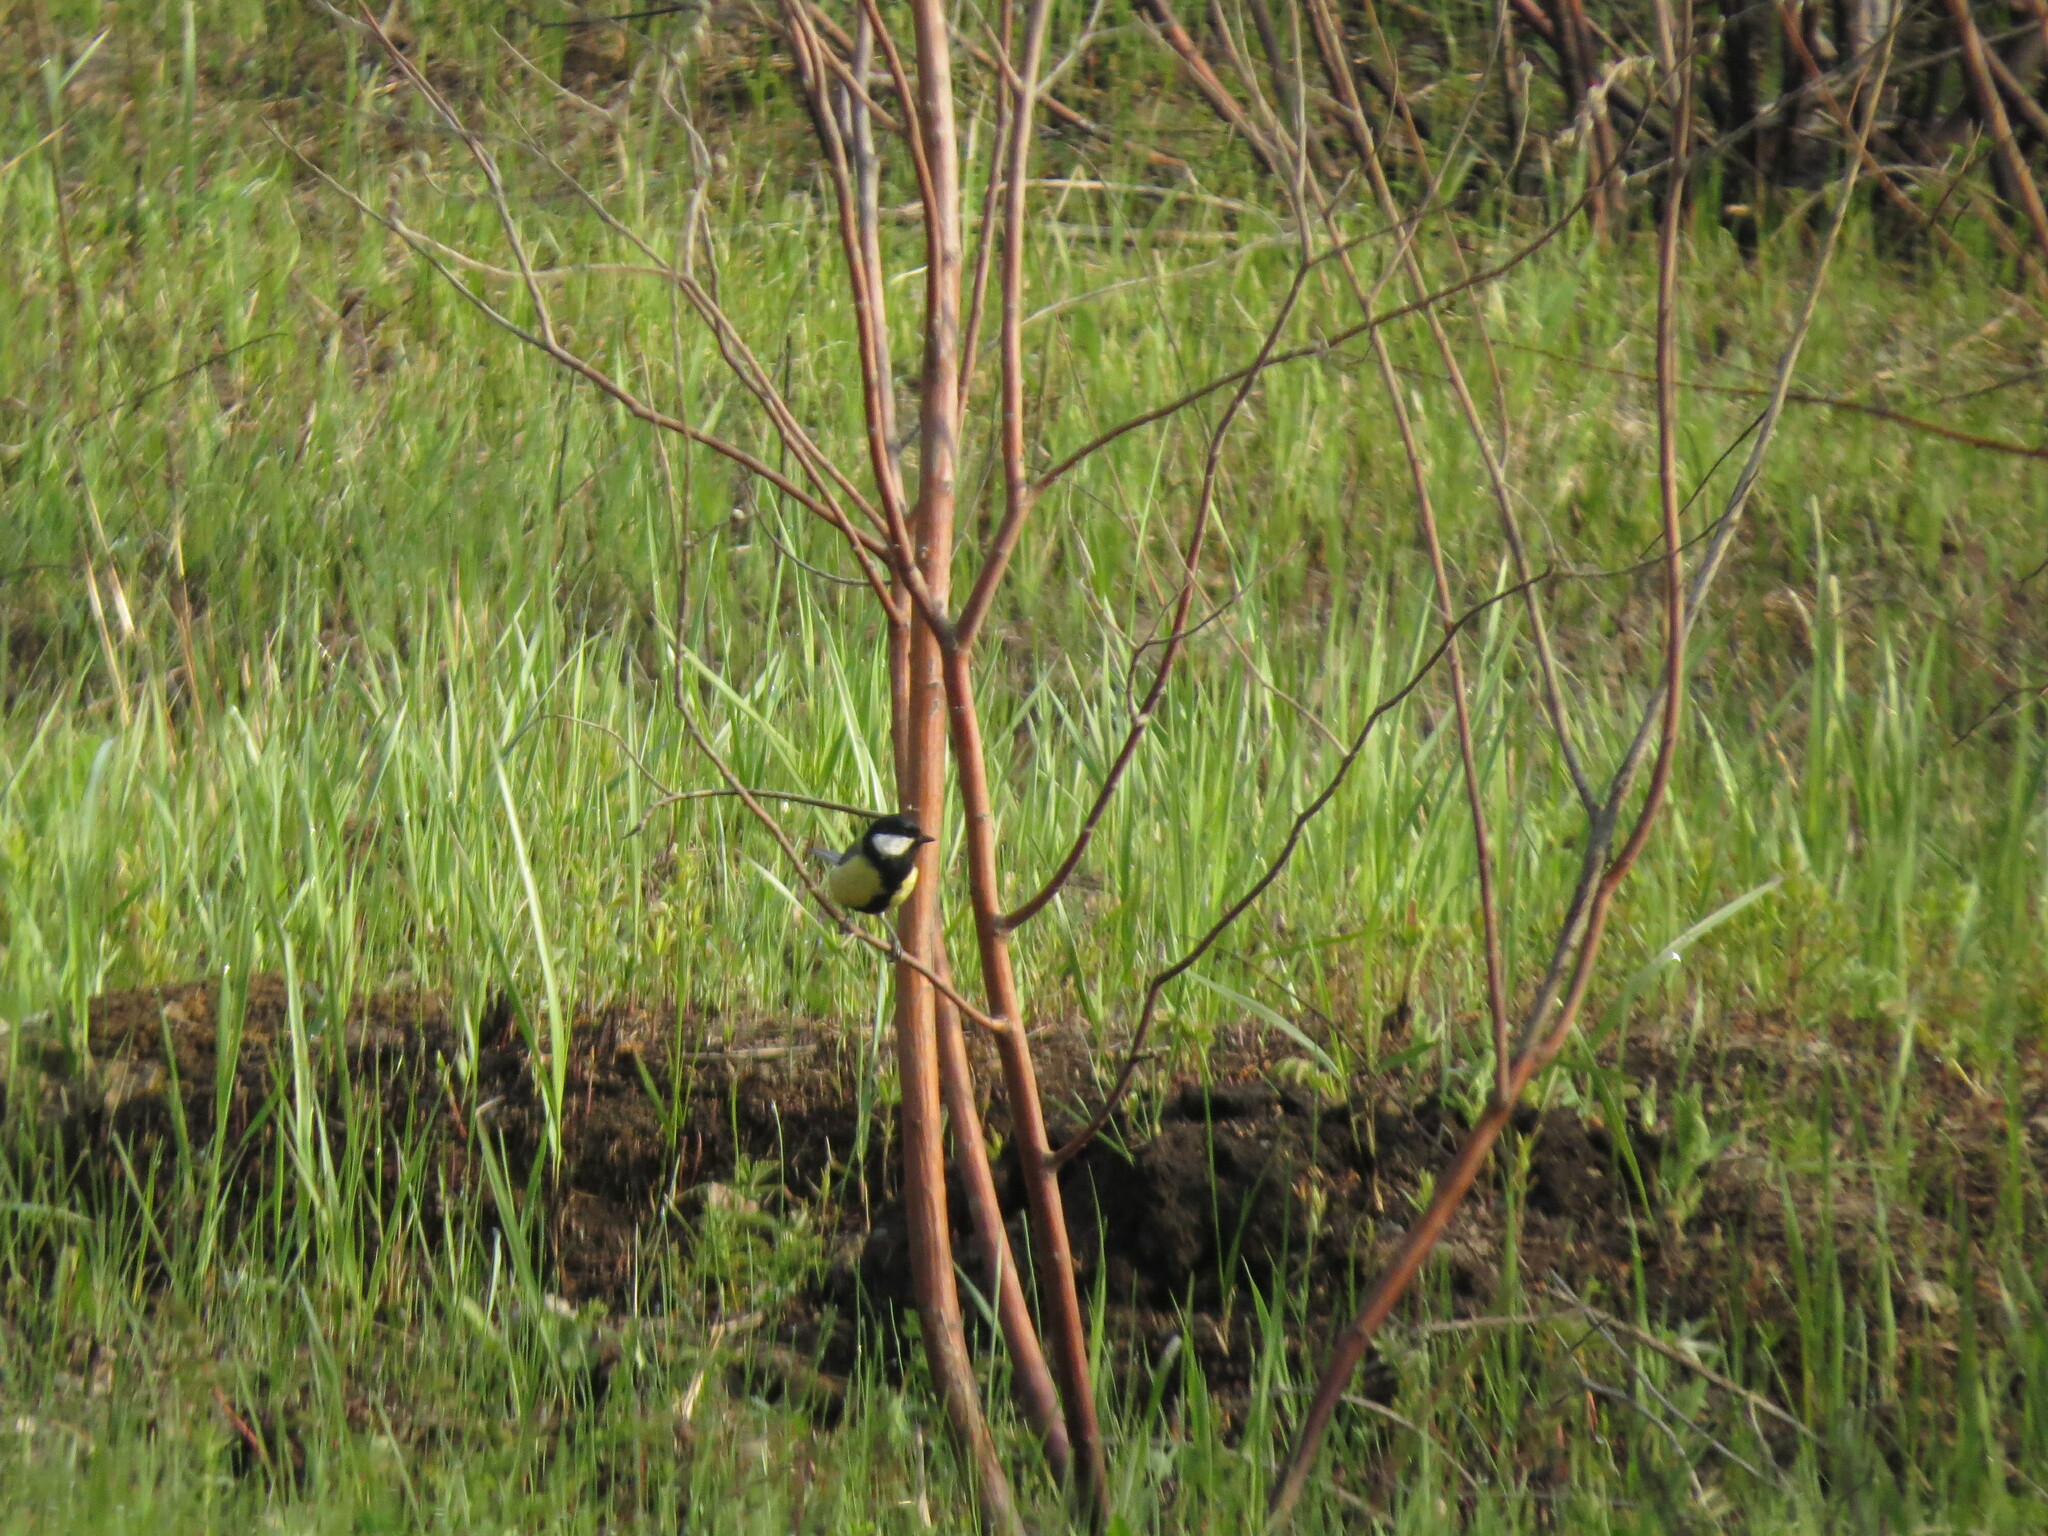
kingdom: Animalia
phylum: Chordata
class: Aves
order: Passeriformes
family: Paridae
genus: Parus
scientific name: Parus major
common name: Great tit
